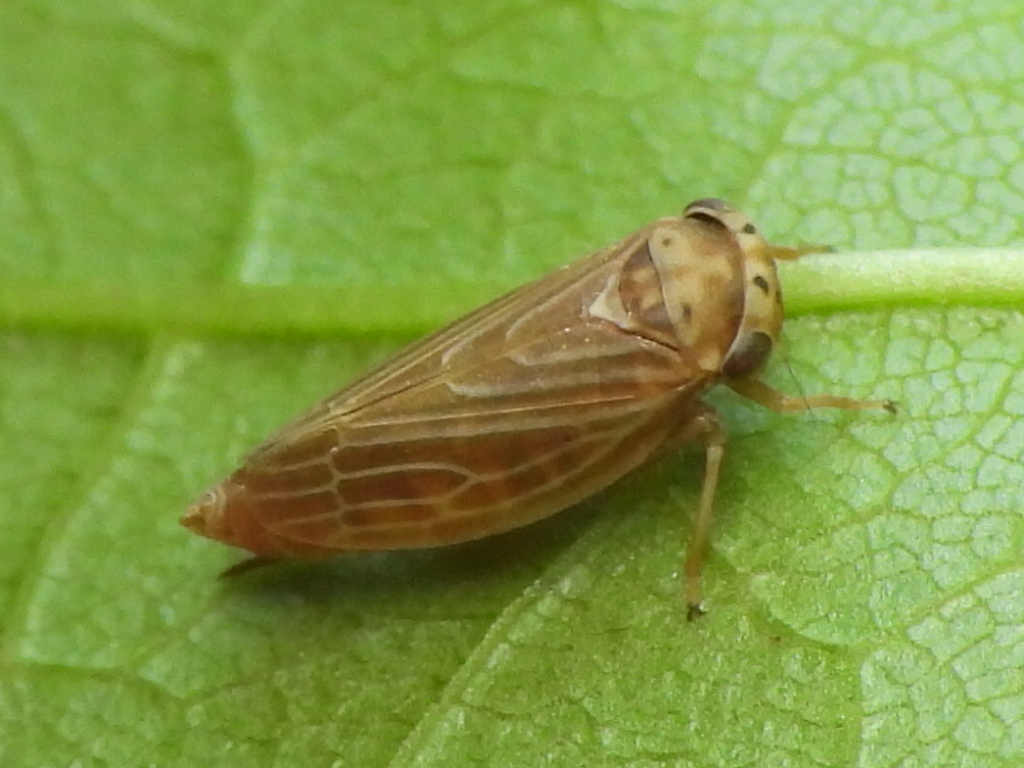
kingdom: Animalia
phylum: Arthropoda
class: Insecta
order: Hemiptera
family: Cicadellidae
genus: Agalliota
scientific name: Agalliota quadripunctata
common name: The four-spotted clover leafhopper
